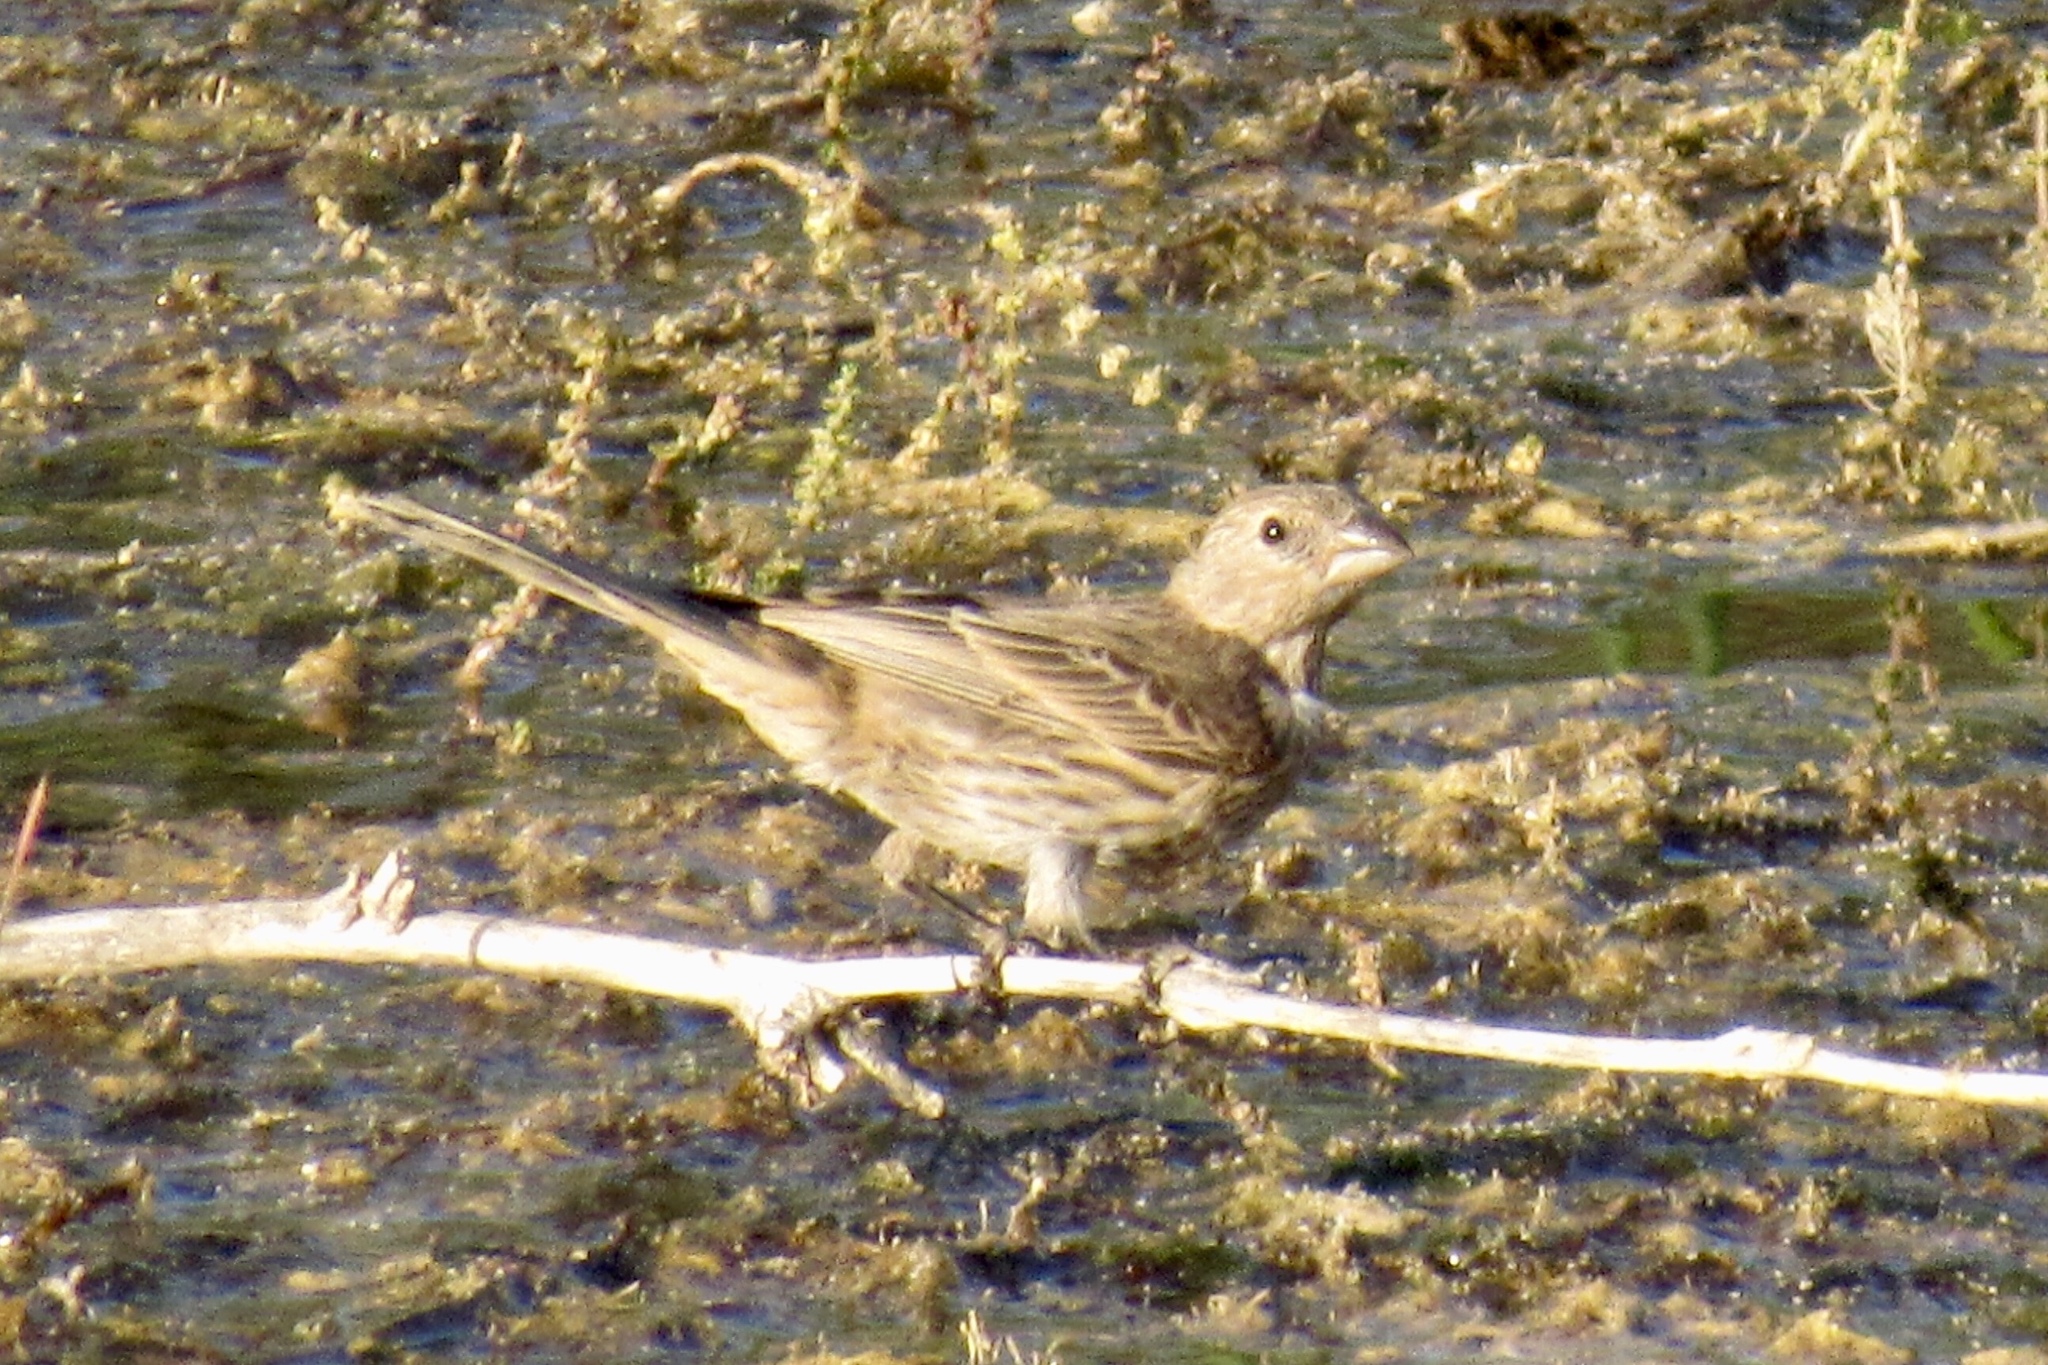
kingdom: Animalia
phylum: Chordata
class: Aves
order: Passeriformes
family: Fringillidae
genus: Haemorhous
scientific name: Haemorhous mexicanus
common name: House finch
